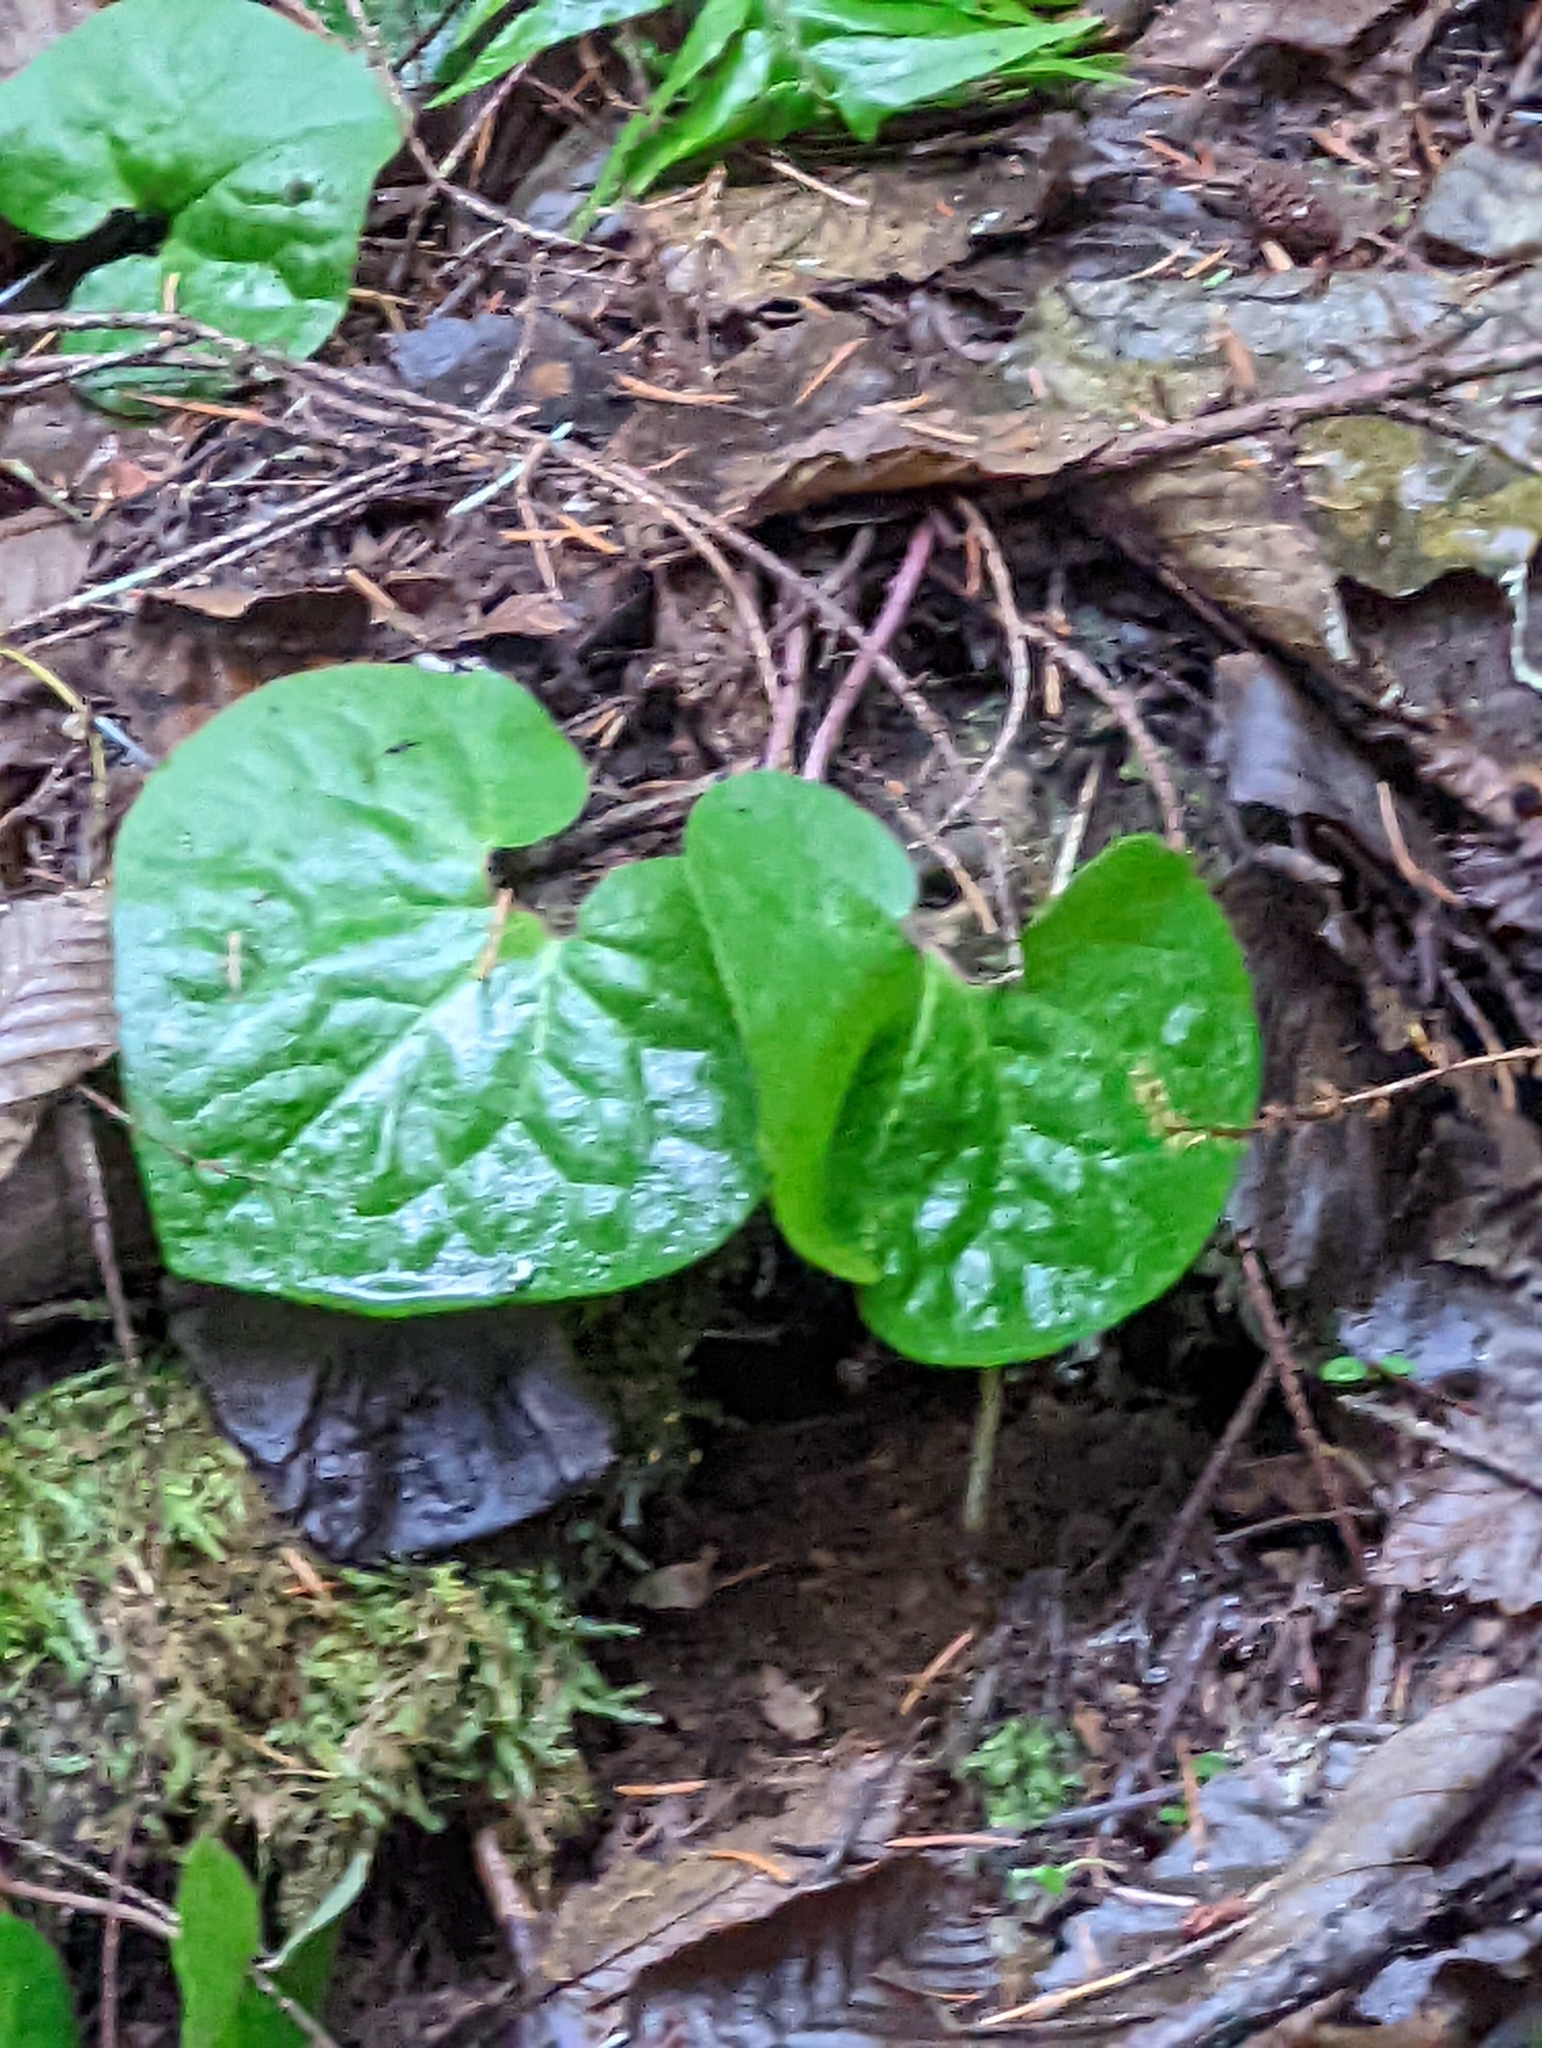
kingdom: Plantae
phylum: Tracheophyta
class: Magnoliopsida
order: Piperales
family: Aristolochiaceae
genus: Asarum
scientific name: Asarum caudatum
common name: Wild ginger
